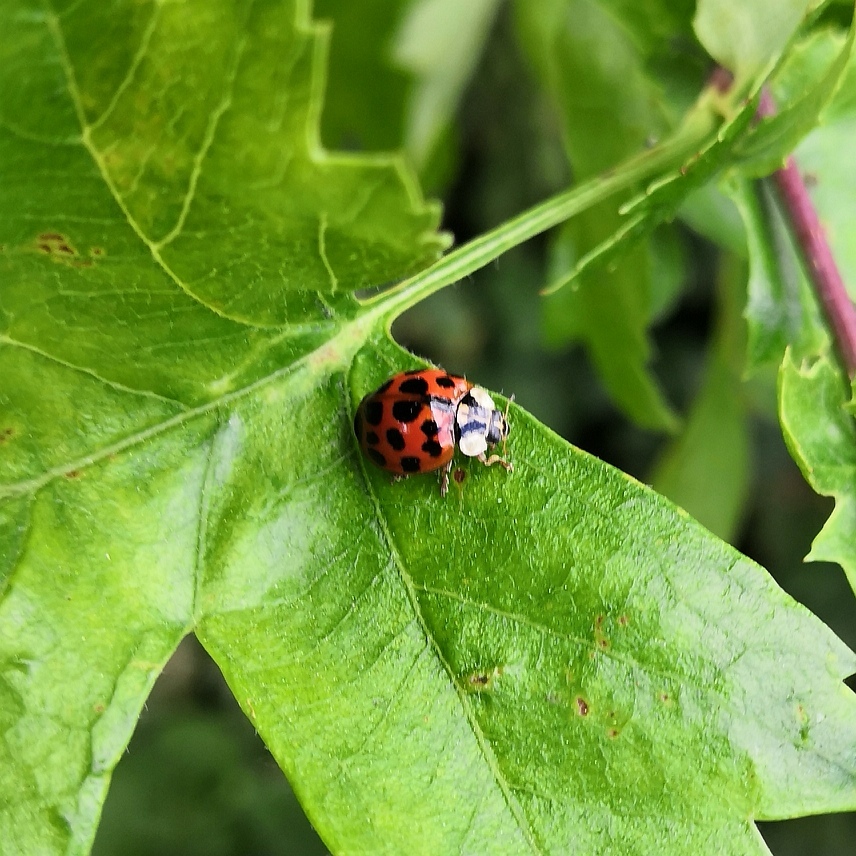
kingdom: Animalia
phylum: Arthropoda
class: Insecta
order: Coleoptera
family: Coccinellidae
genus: Harmonia
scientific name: Harmonia axyridis
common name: Harlequin ladybird
